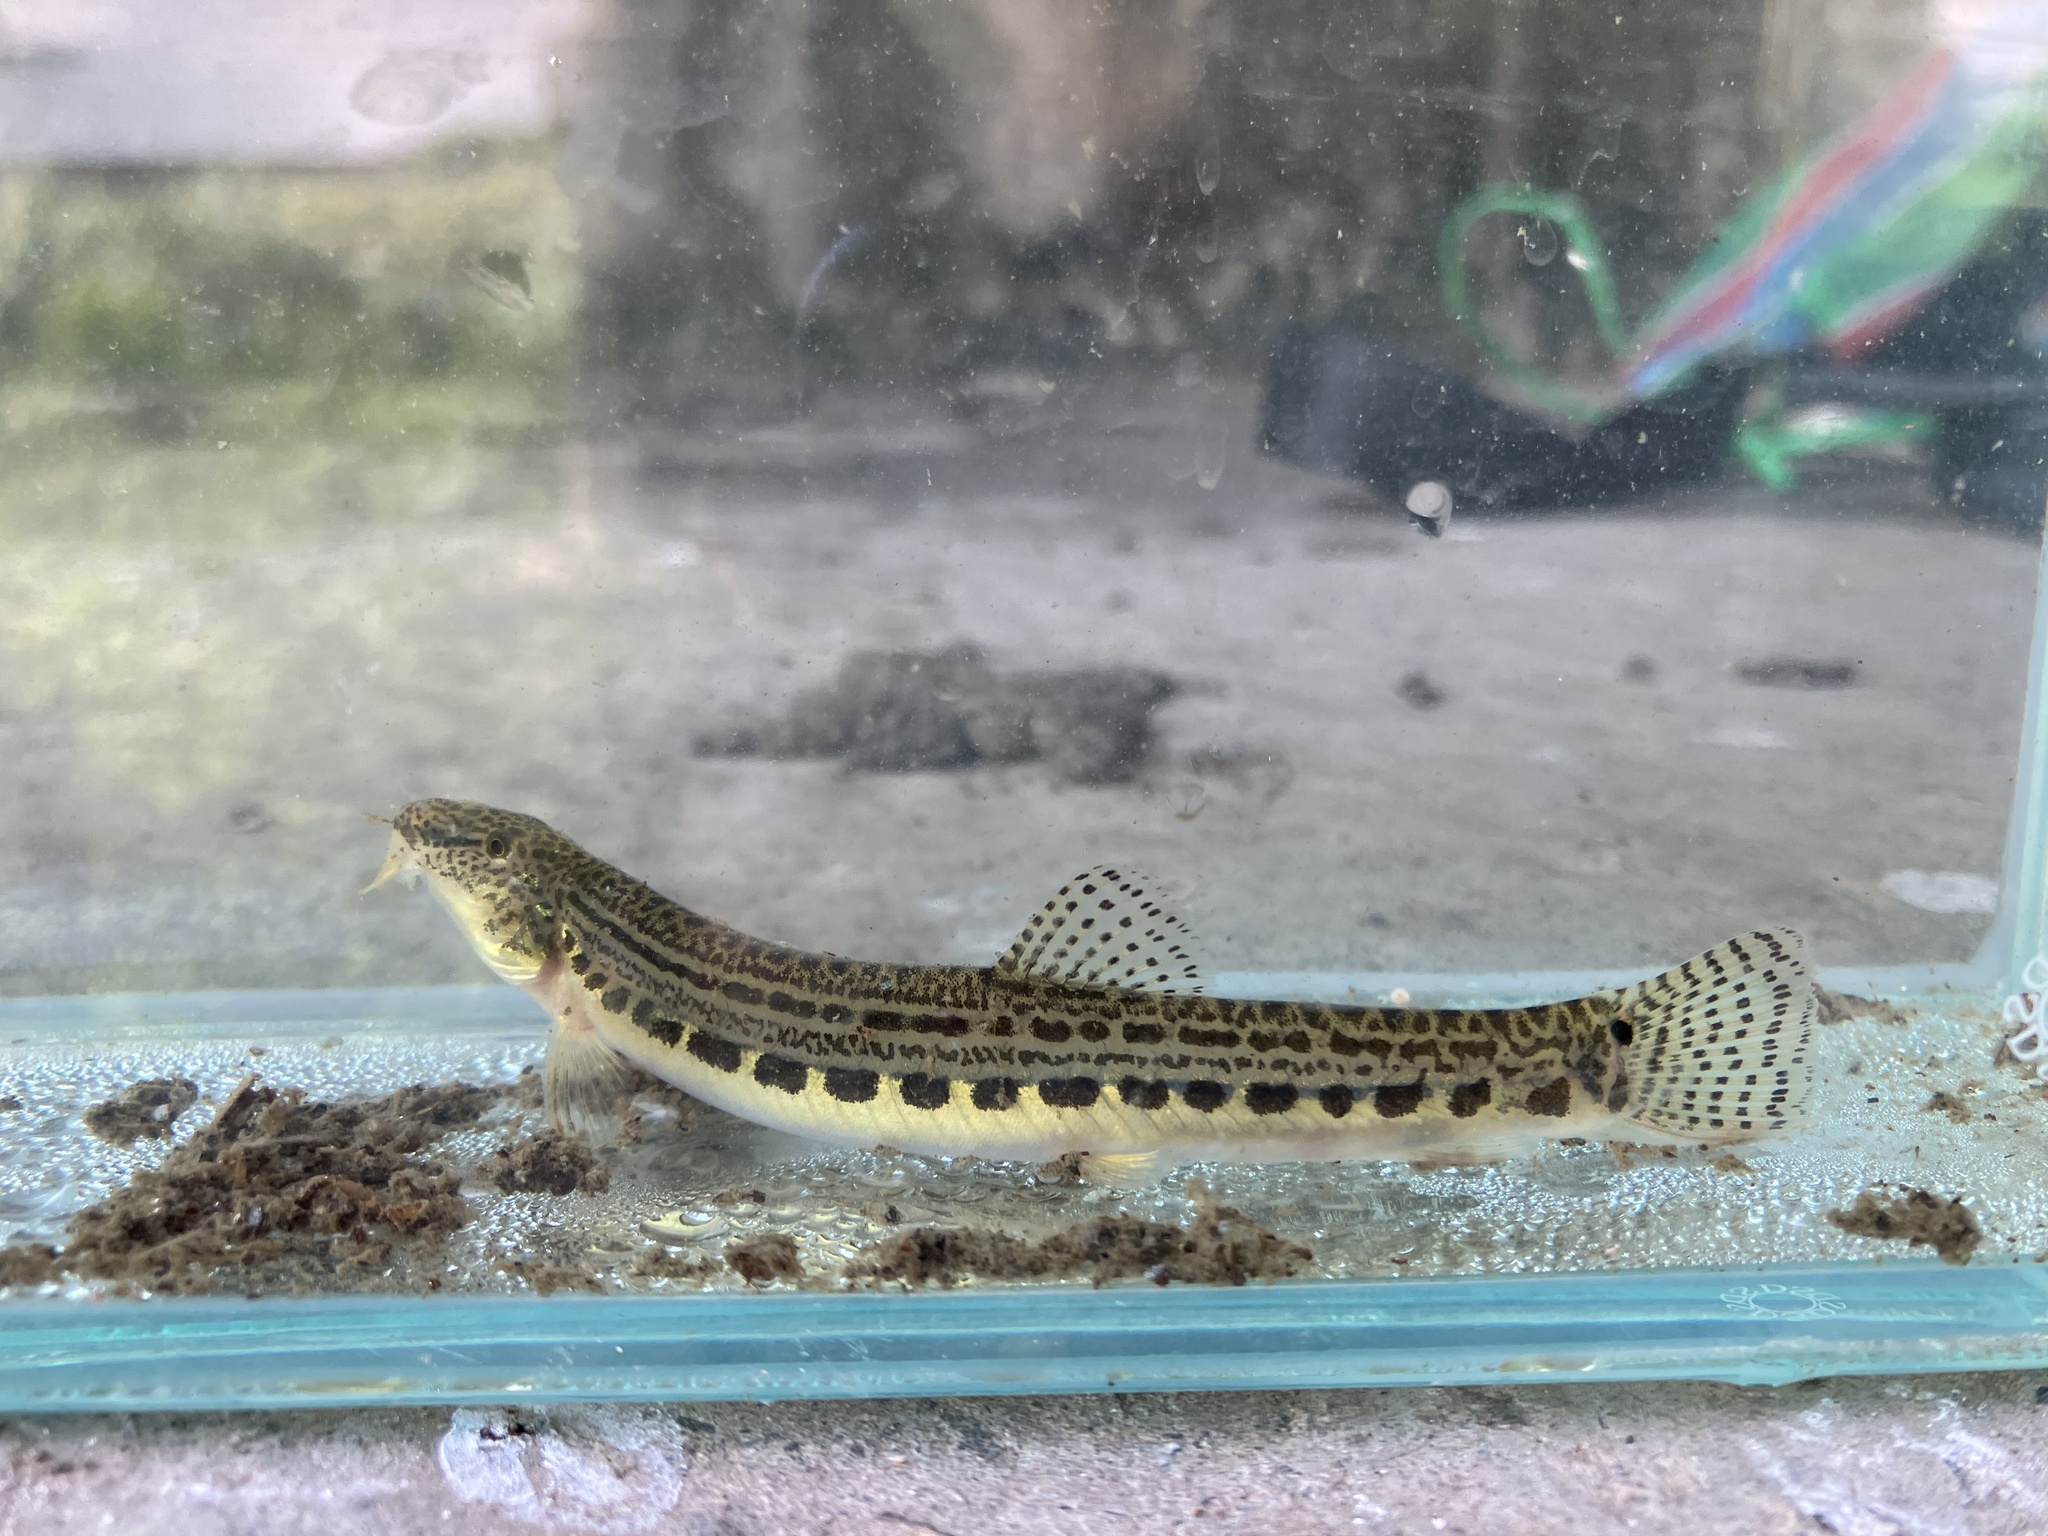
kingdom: Animalia
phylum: Chordata
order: Cypriniformes
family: Cobitidae
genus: Cobitis
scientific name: Cobitis sinensis
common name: Siberian spiny loach
